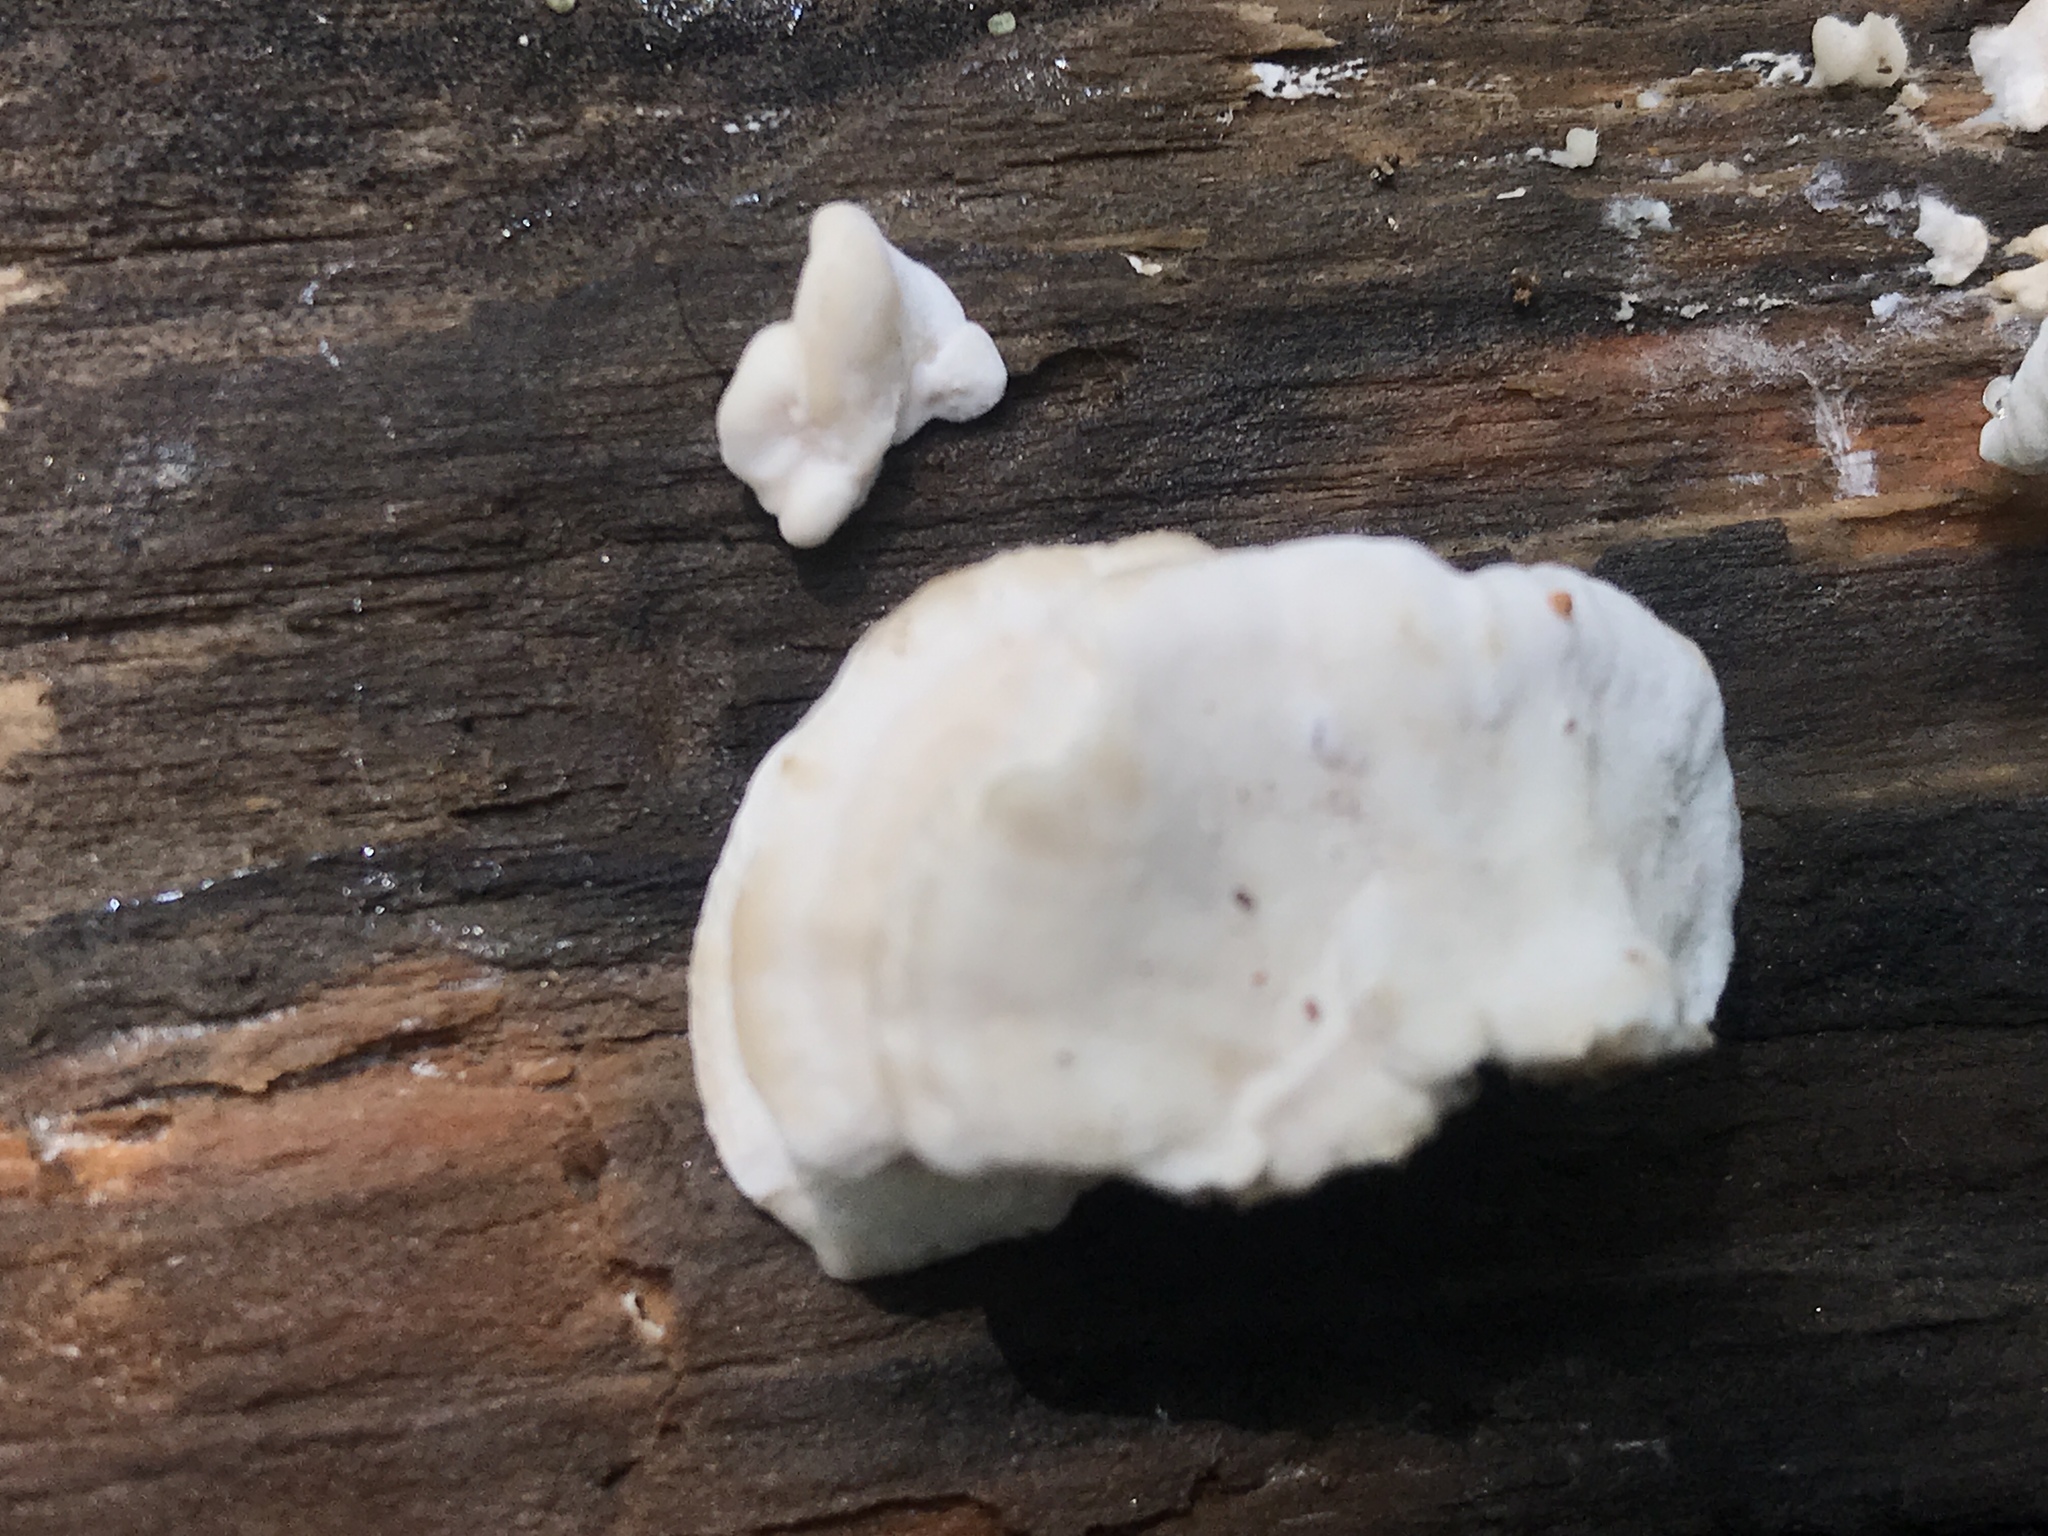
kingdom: Fungi
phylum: Basidiomycota
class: Agaricomycetes
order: Polyporales
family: Incrustoporiaceae
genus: Tyromyces
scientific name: Tyromyces chioneus
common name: White cheese polypore
